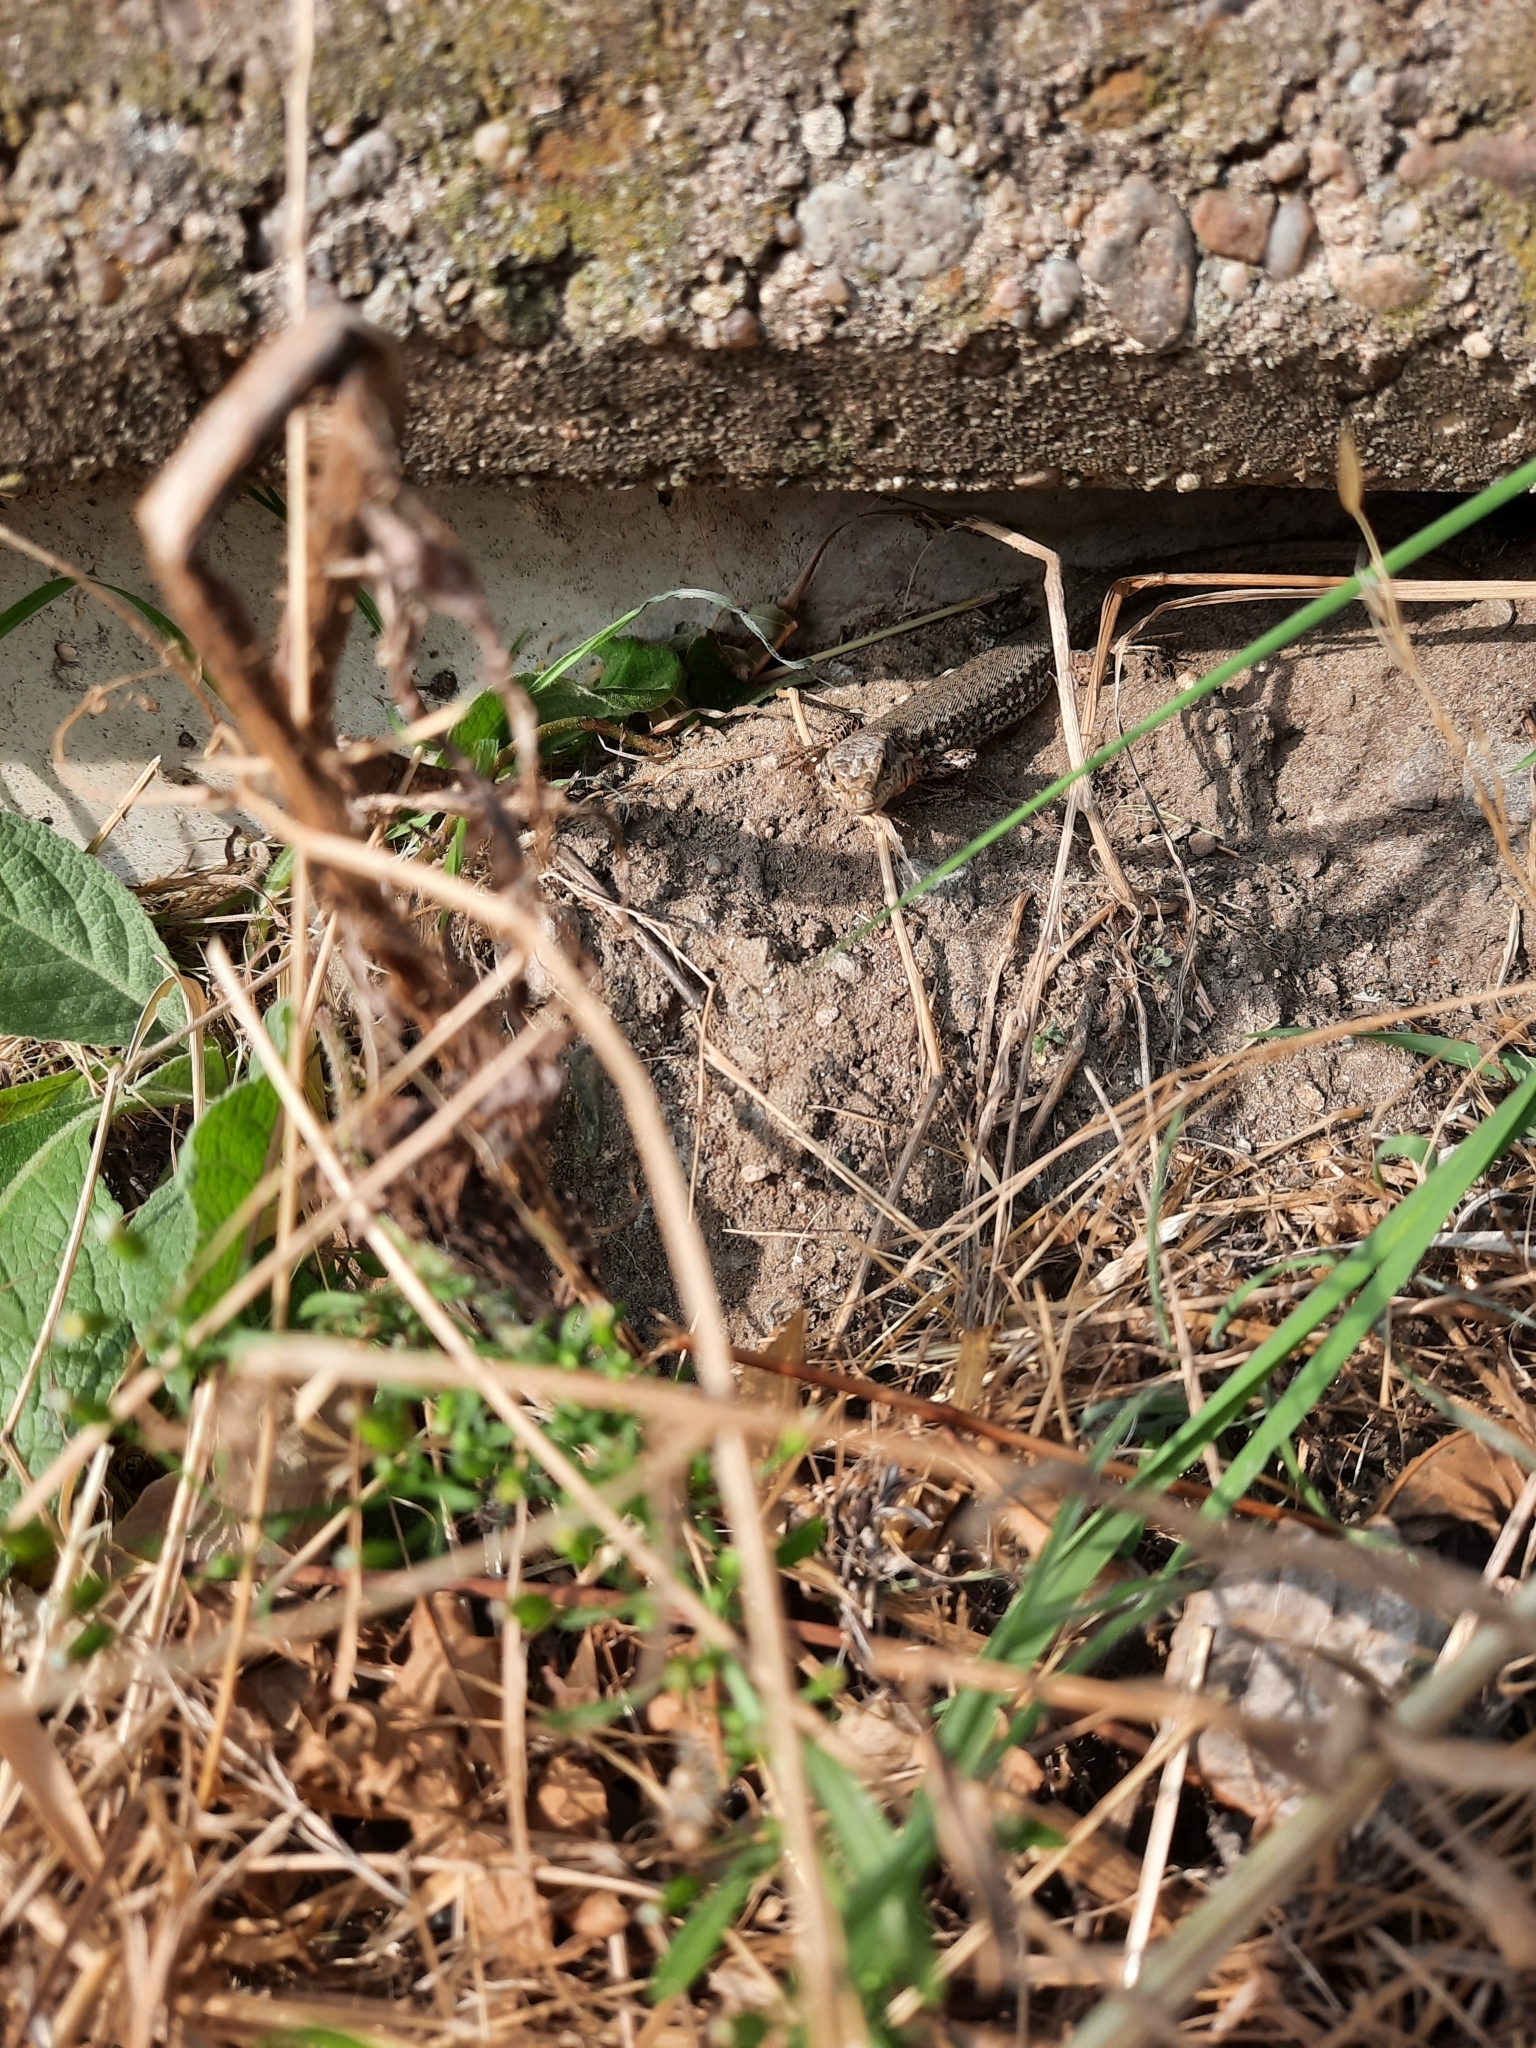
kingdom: Animalia
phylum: Chordata
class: Squamata
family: Lacertidae
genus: Podarcis
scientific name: Podarcis muralis
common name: Common wall lizard
